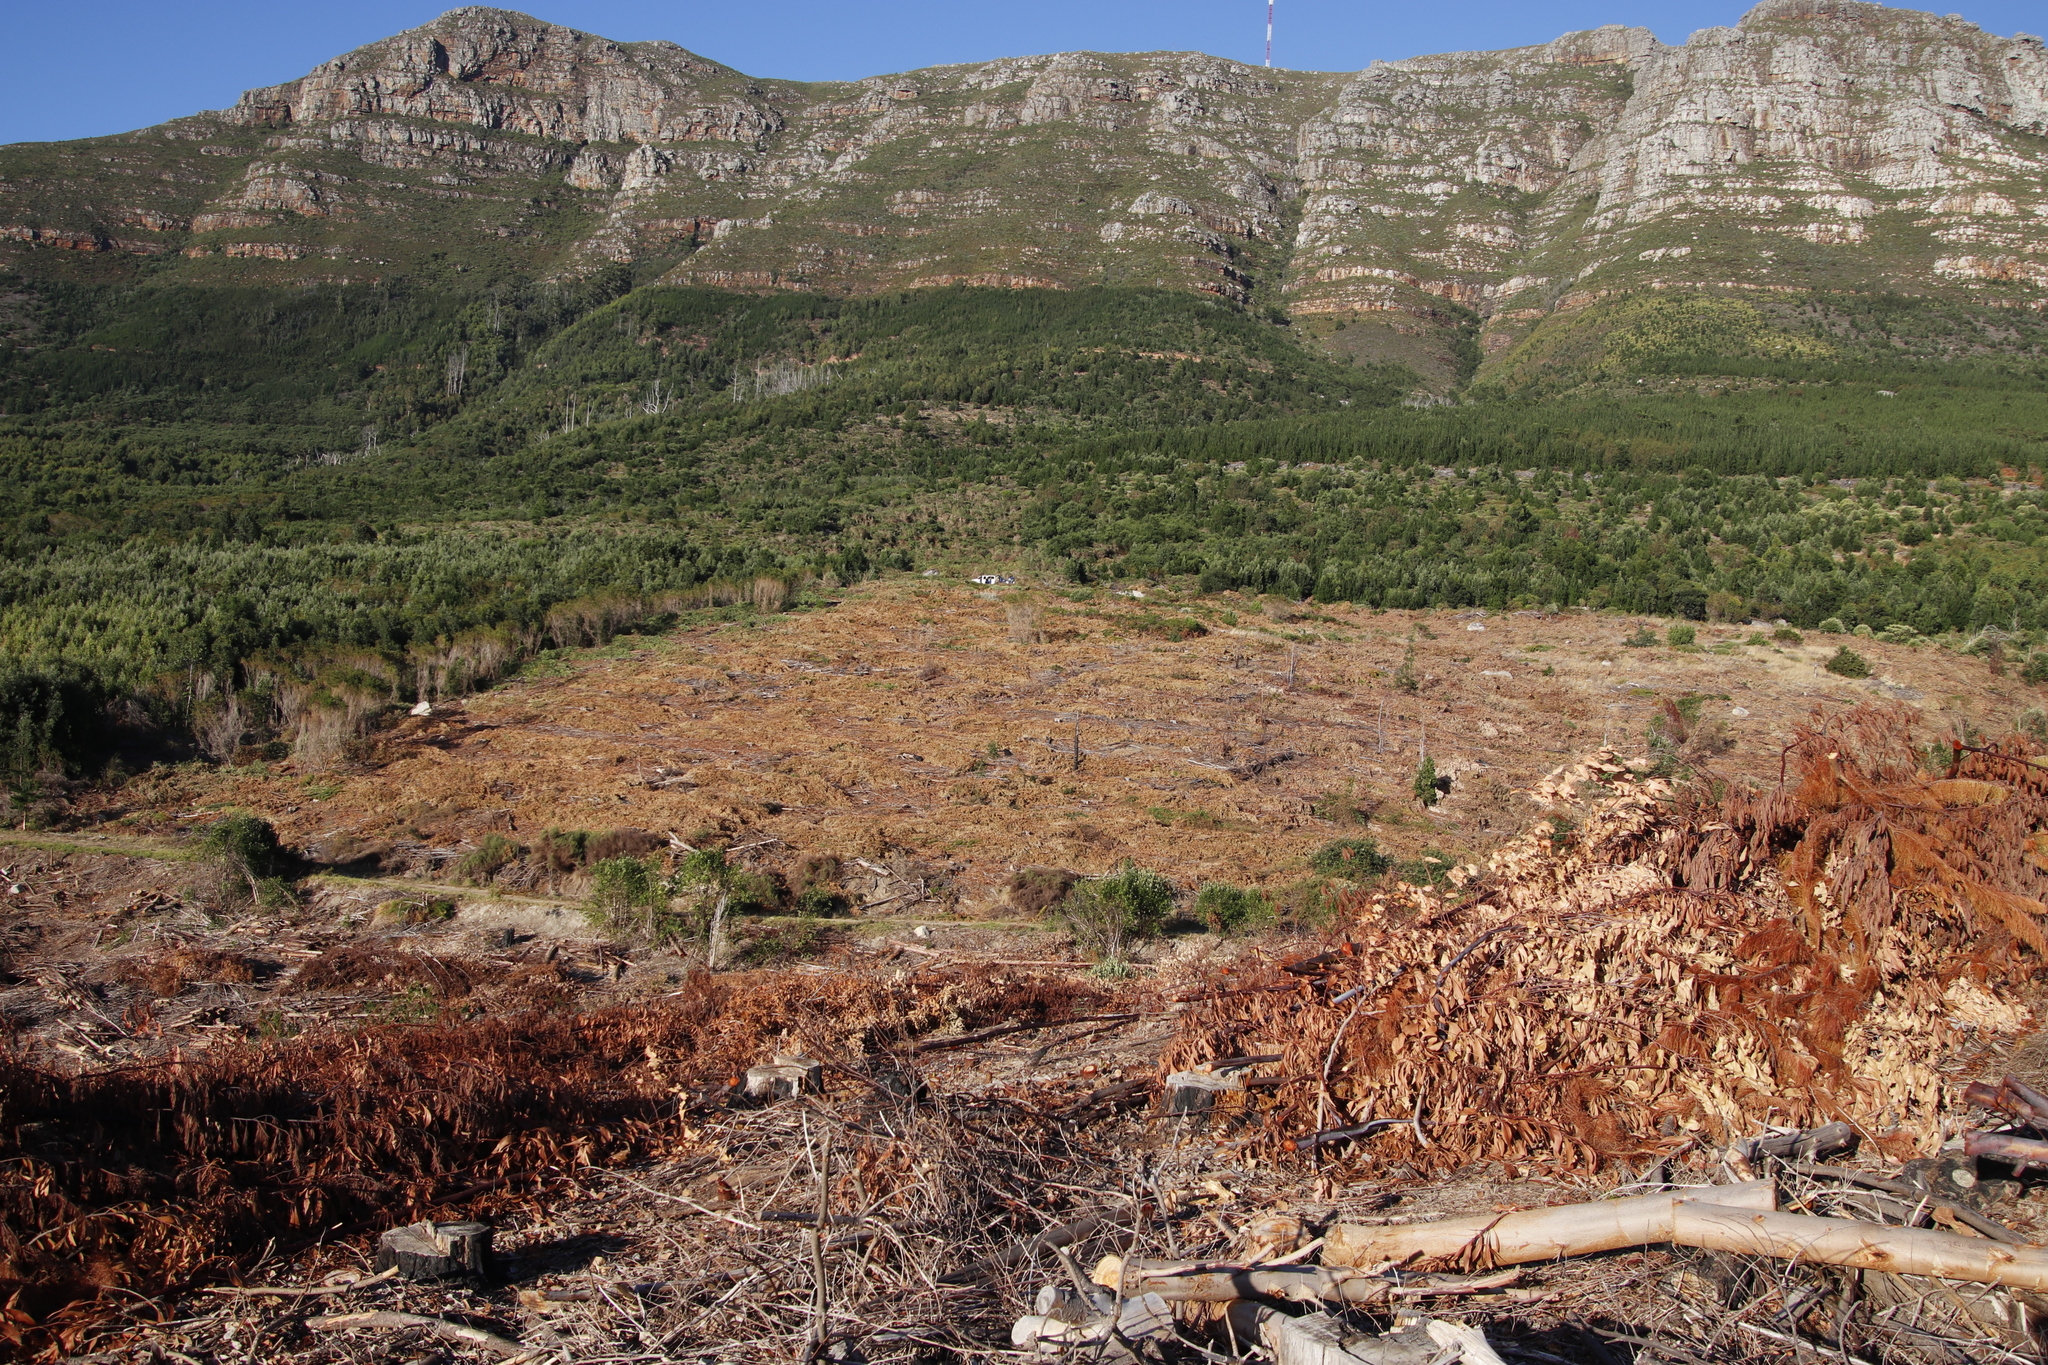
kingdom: Plantae
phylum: Tracheophyta
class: Magnoliopsida
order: Fabales
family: Fabaceae
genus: Acacia
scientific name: Acacia melanoxylon
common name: Blackwood
